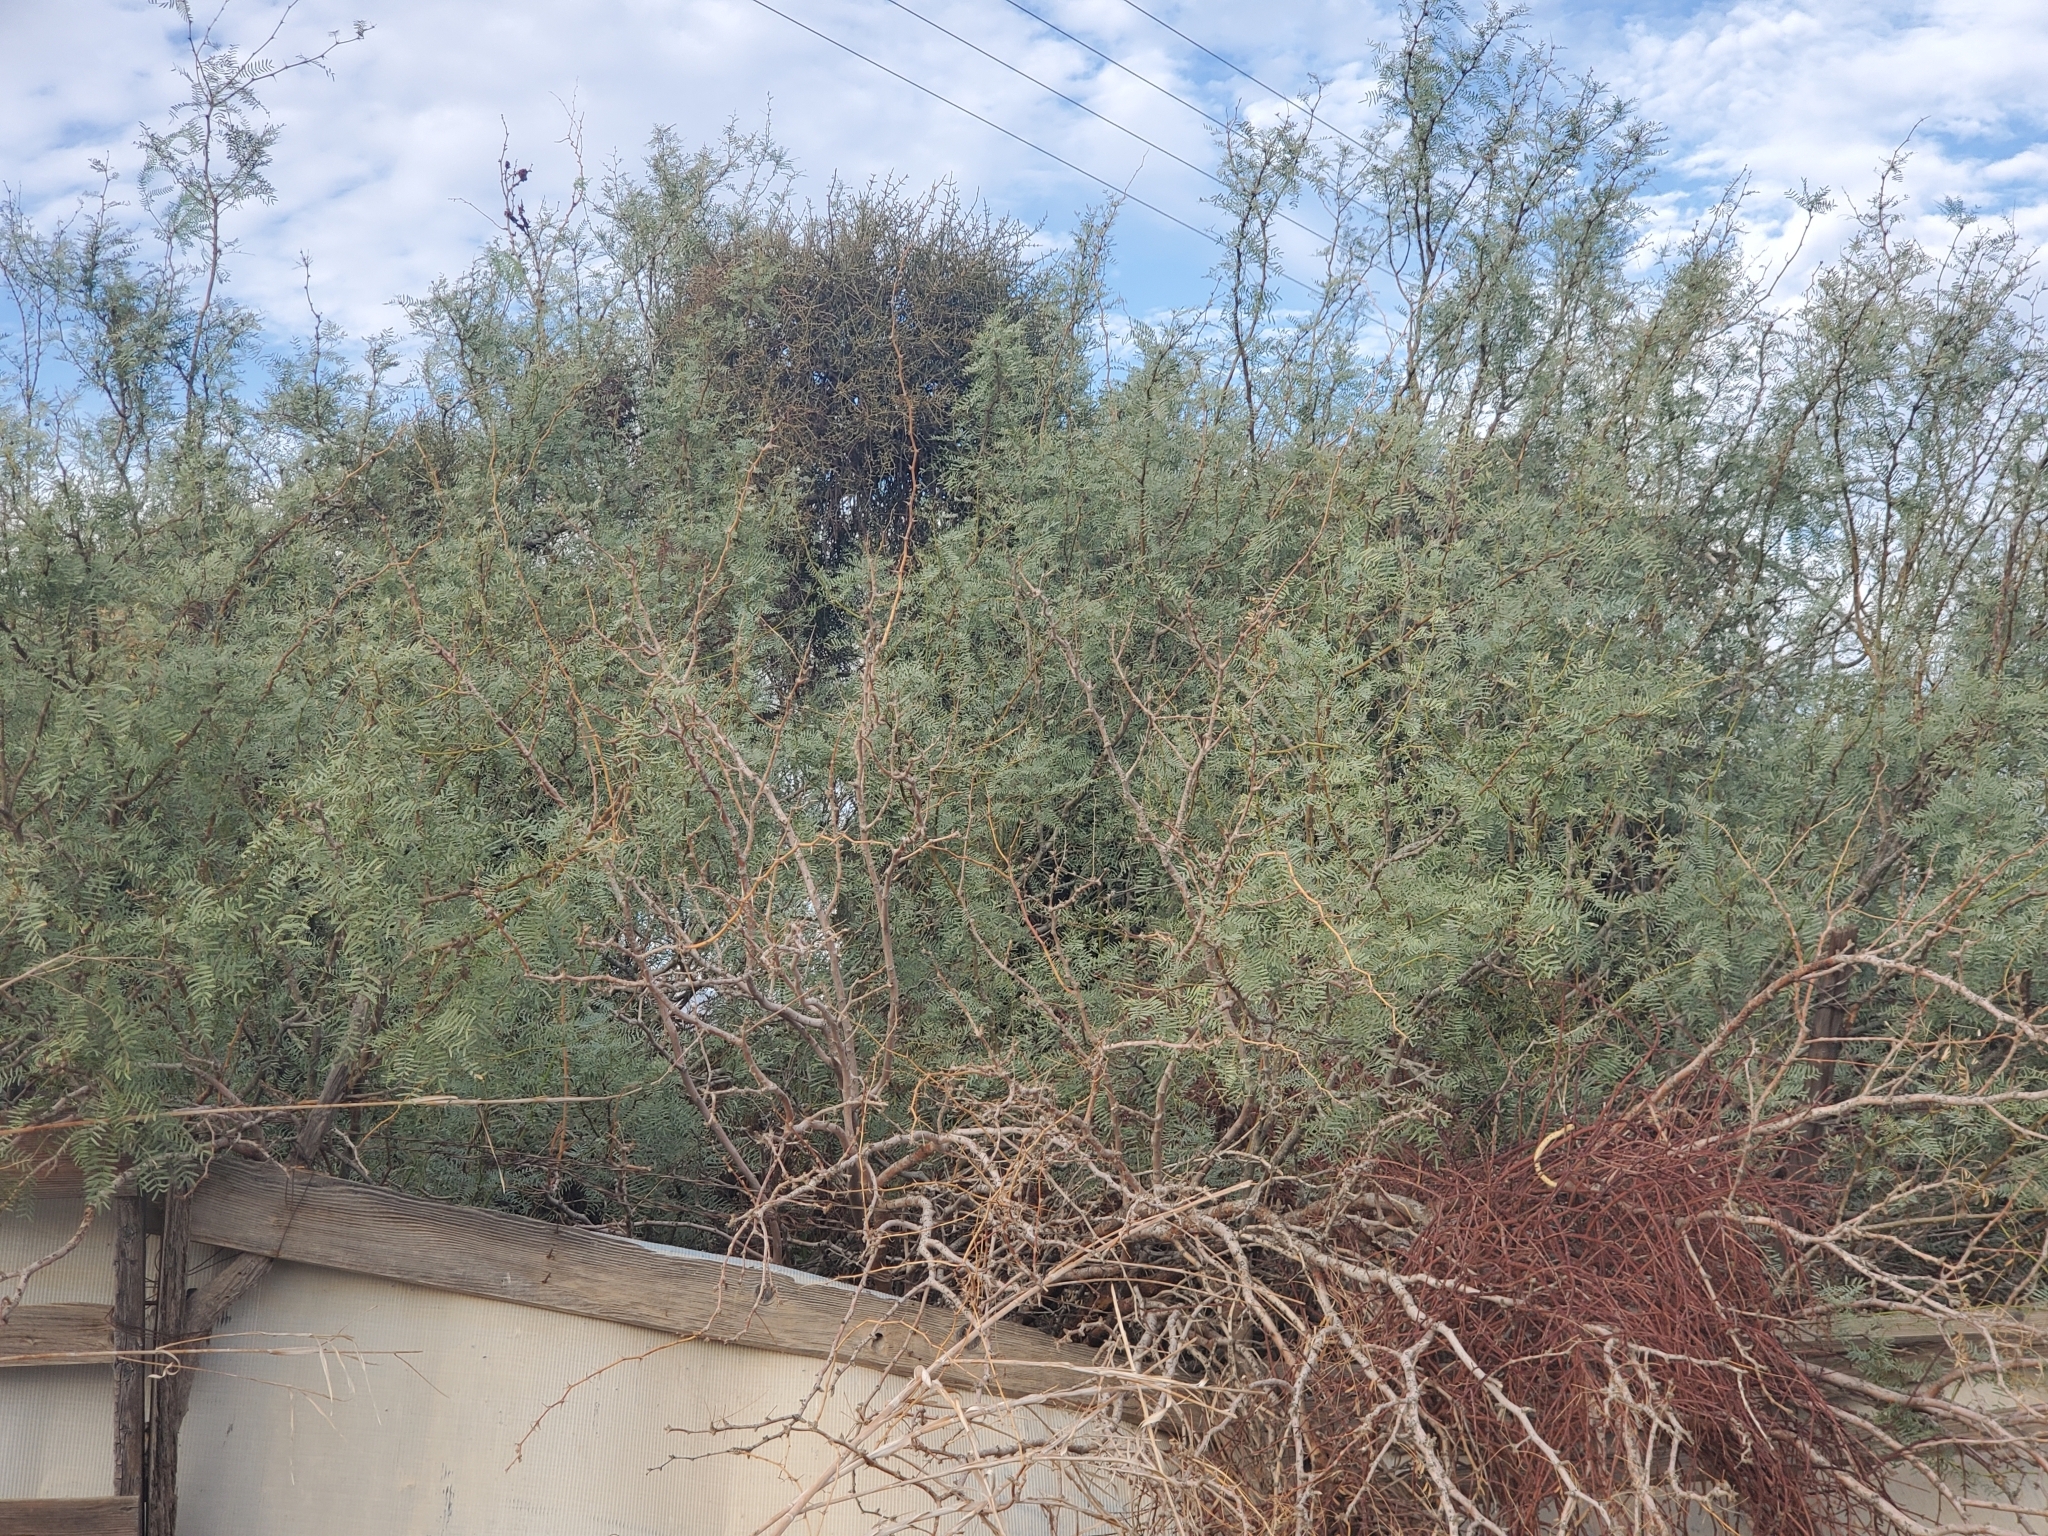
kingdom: Plantae
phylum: Tracheophyta
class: Magnoliopsida
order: Fabales
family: Fabaceae
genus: Prosopis
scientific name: Prosopis pubescens
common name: Screw-bean
